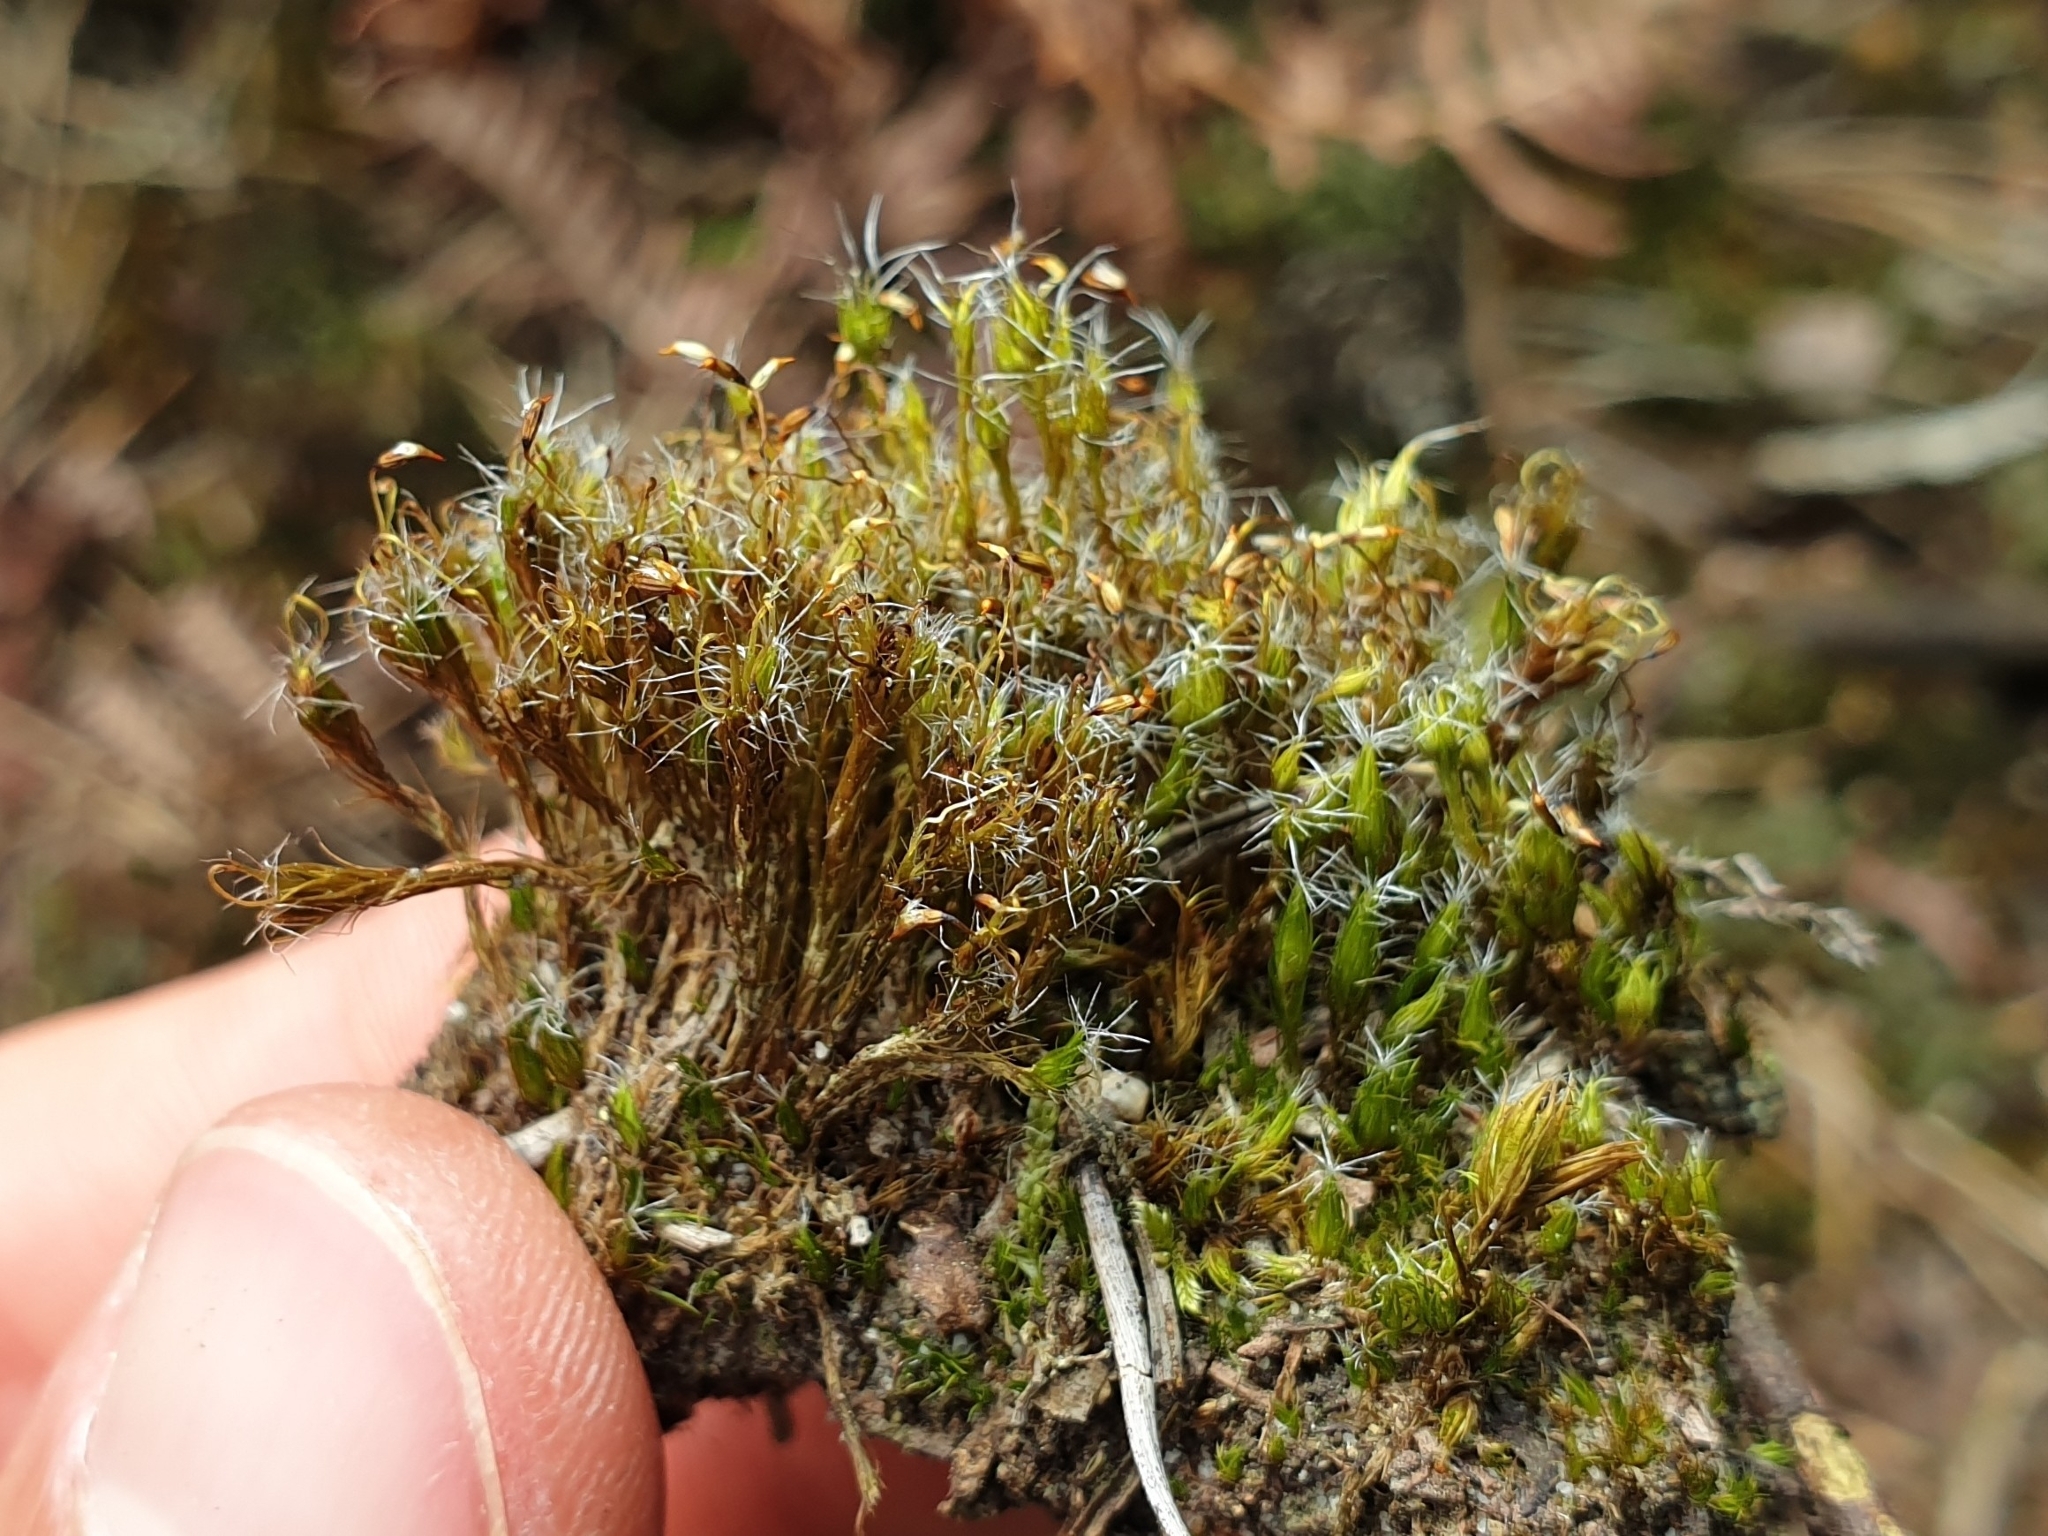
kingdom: Plantae
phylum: Bryophyta
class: Bryopsida
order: Dicranales
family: Leucobryaceae
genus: Campylopus
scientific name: Campylopus introflexus
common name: Heath star moss
